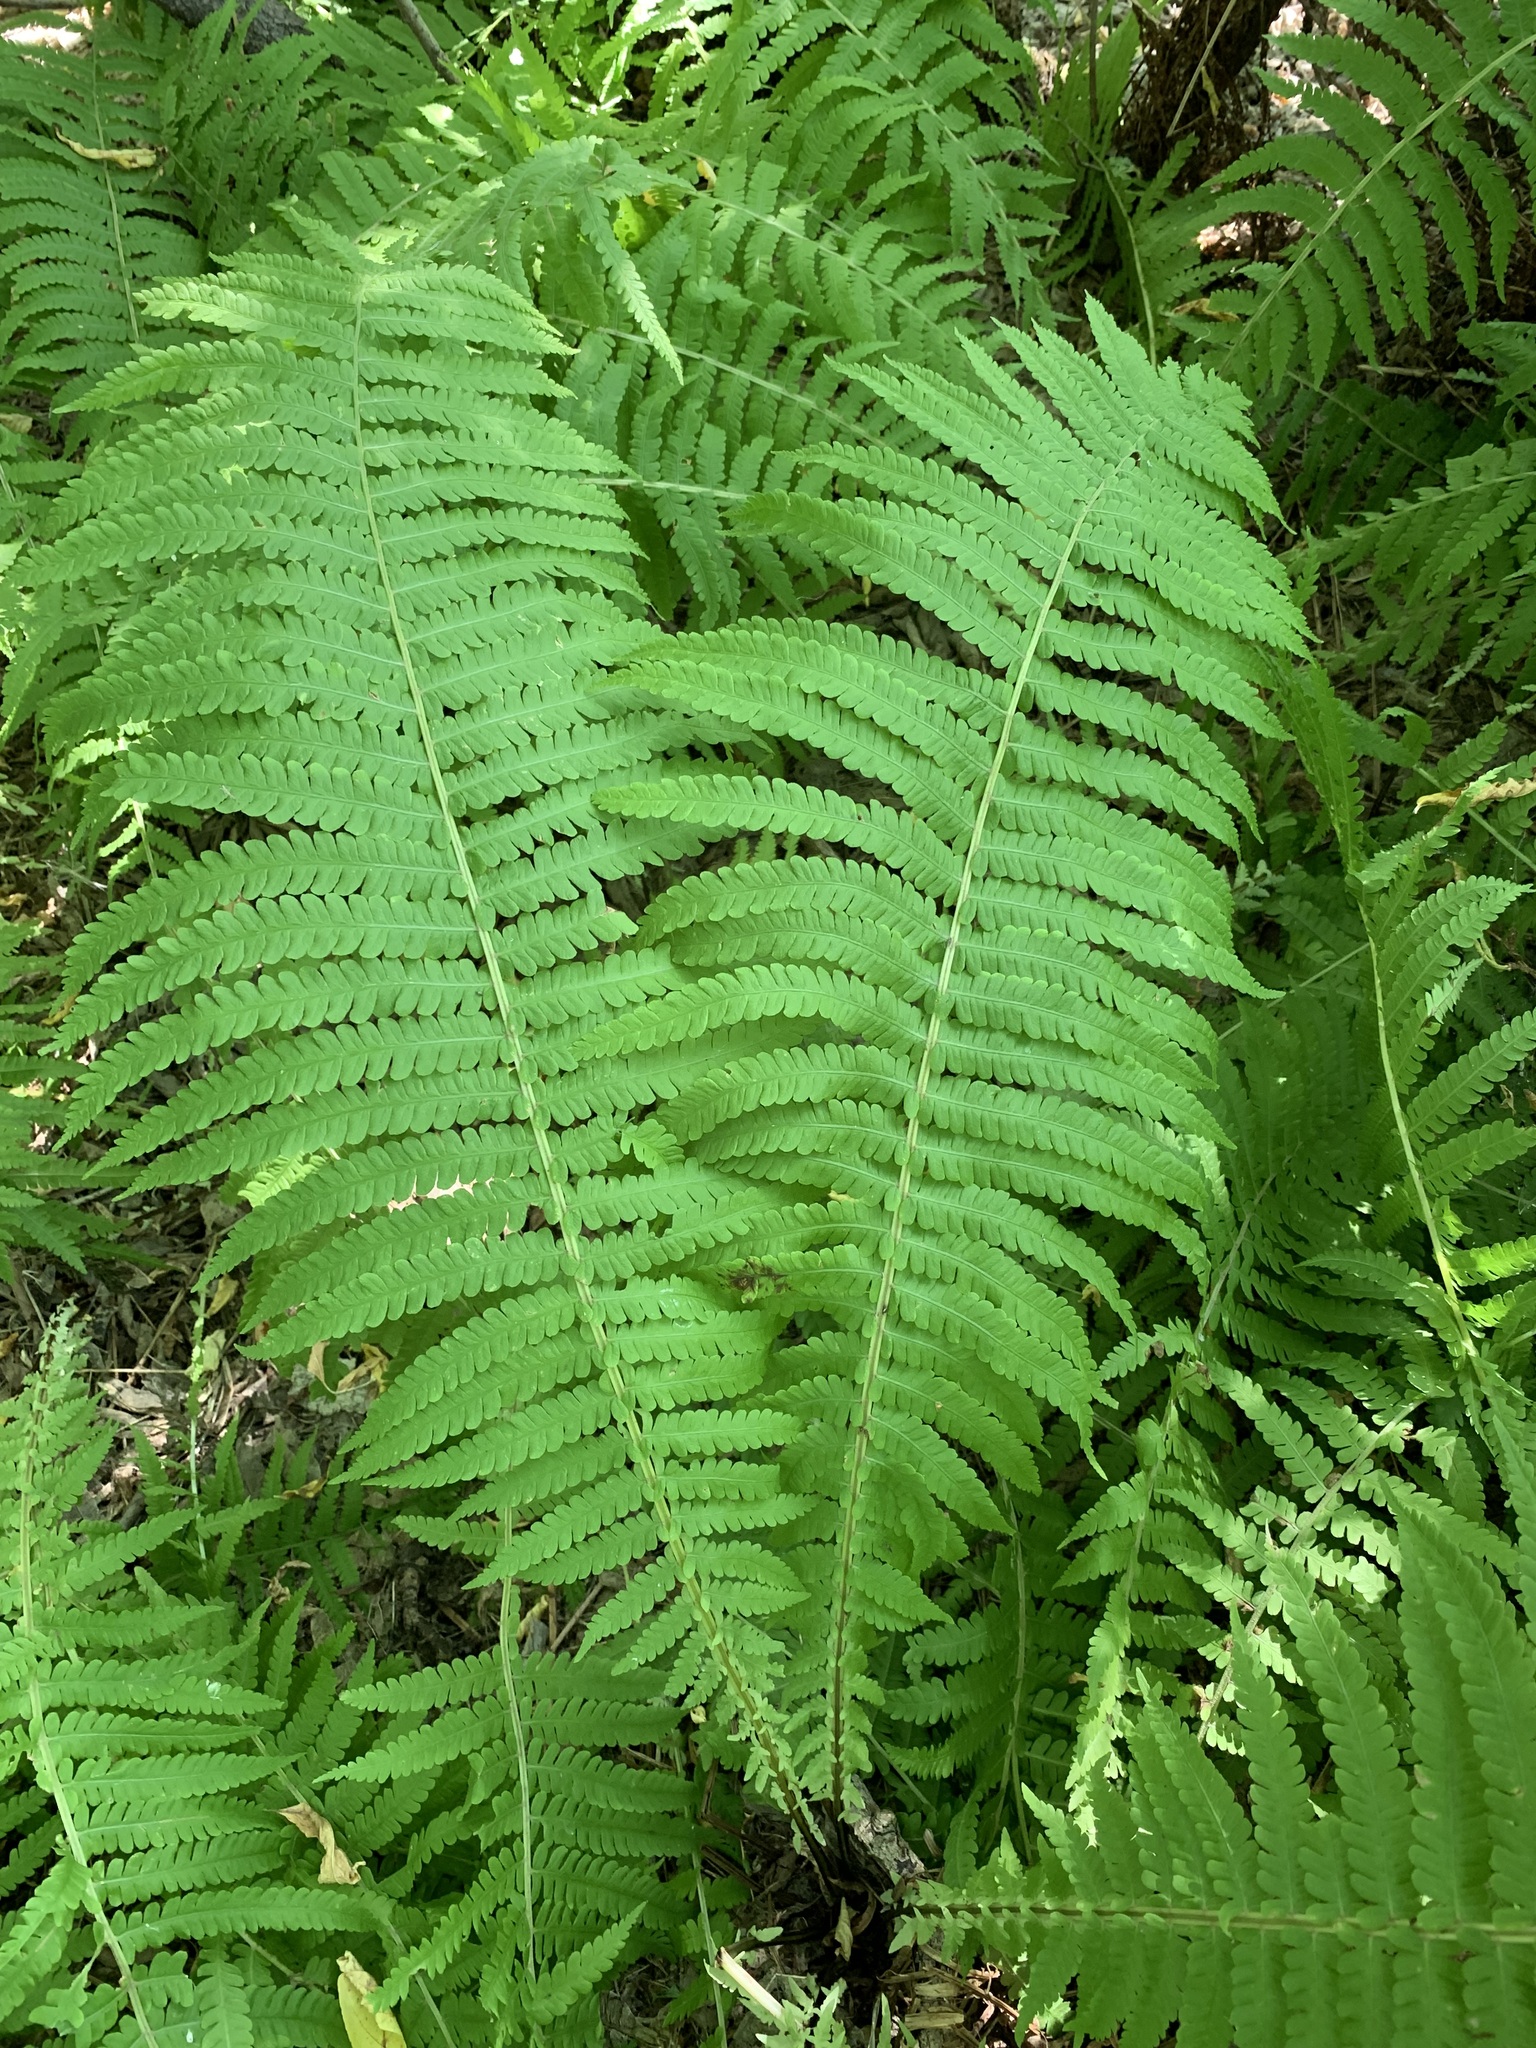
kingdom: Plantae
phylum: Tracheophyta
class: Polypodiopsida
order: Polypodiales
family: Onocleaceae
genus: Matteuccia
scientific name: Matteuccia struthiopteris
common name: Ostrich fern
